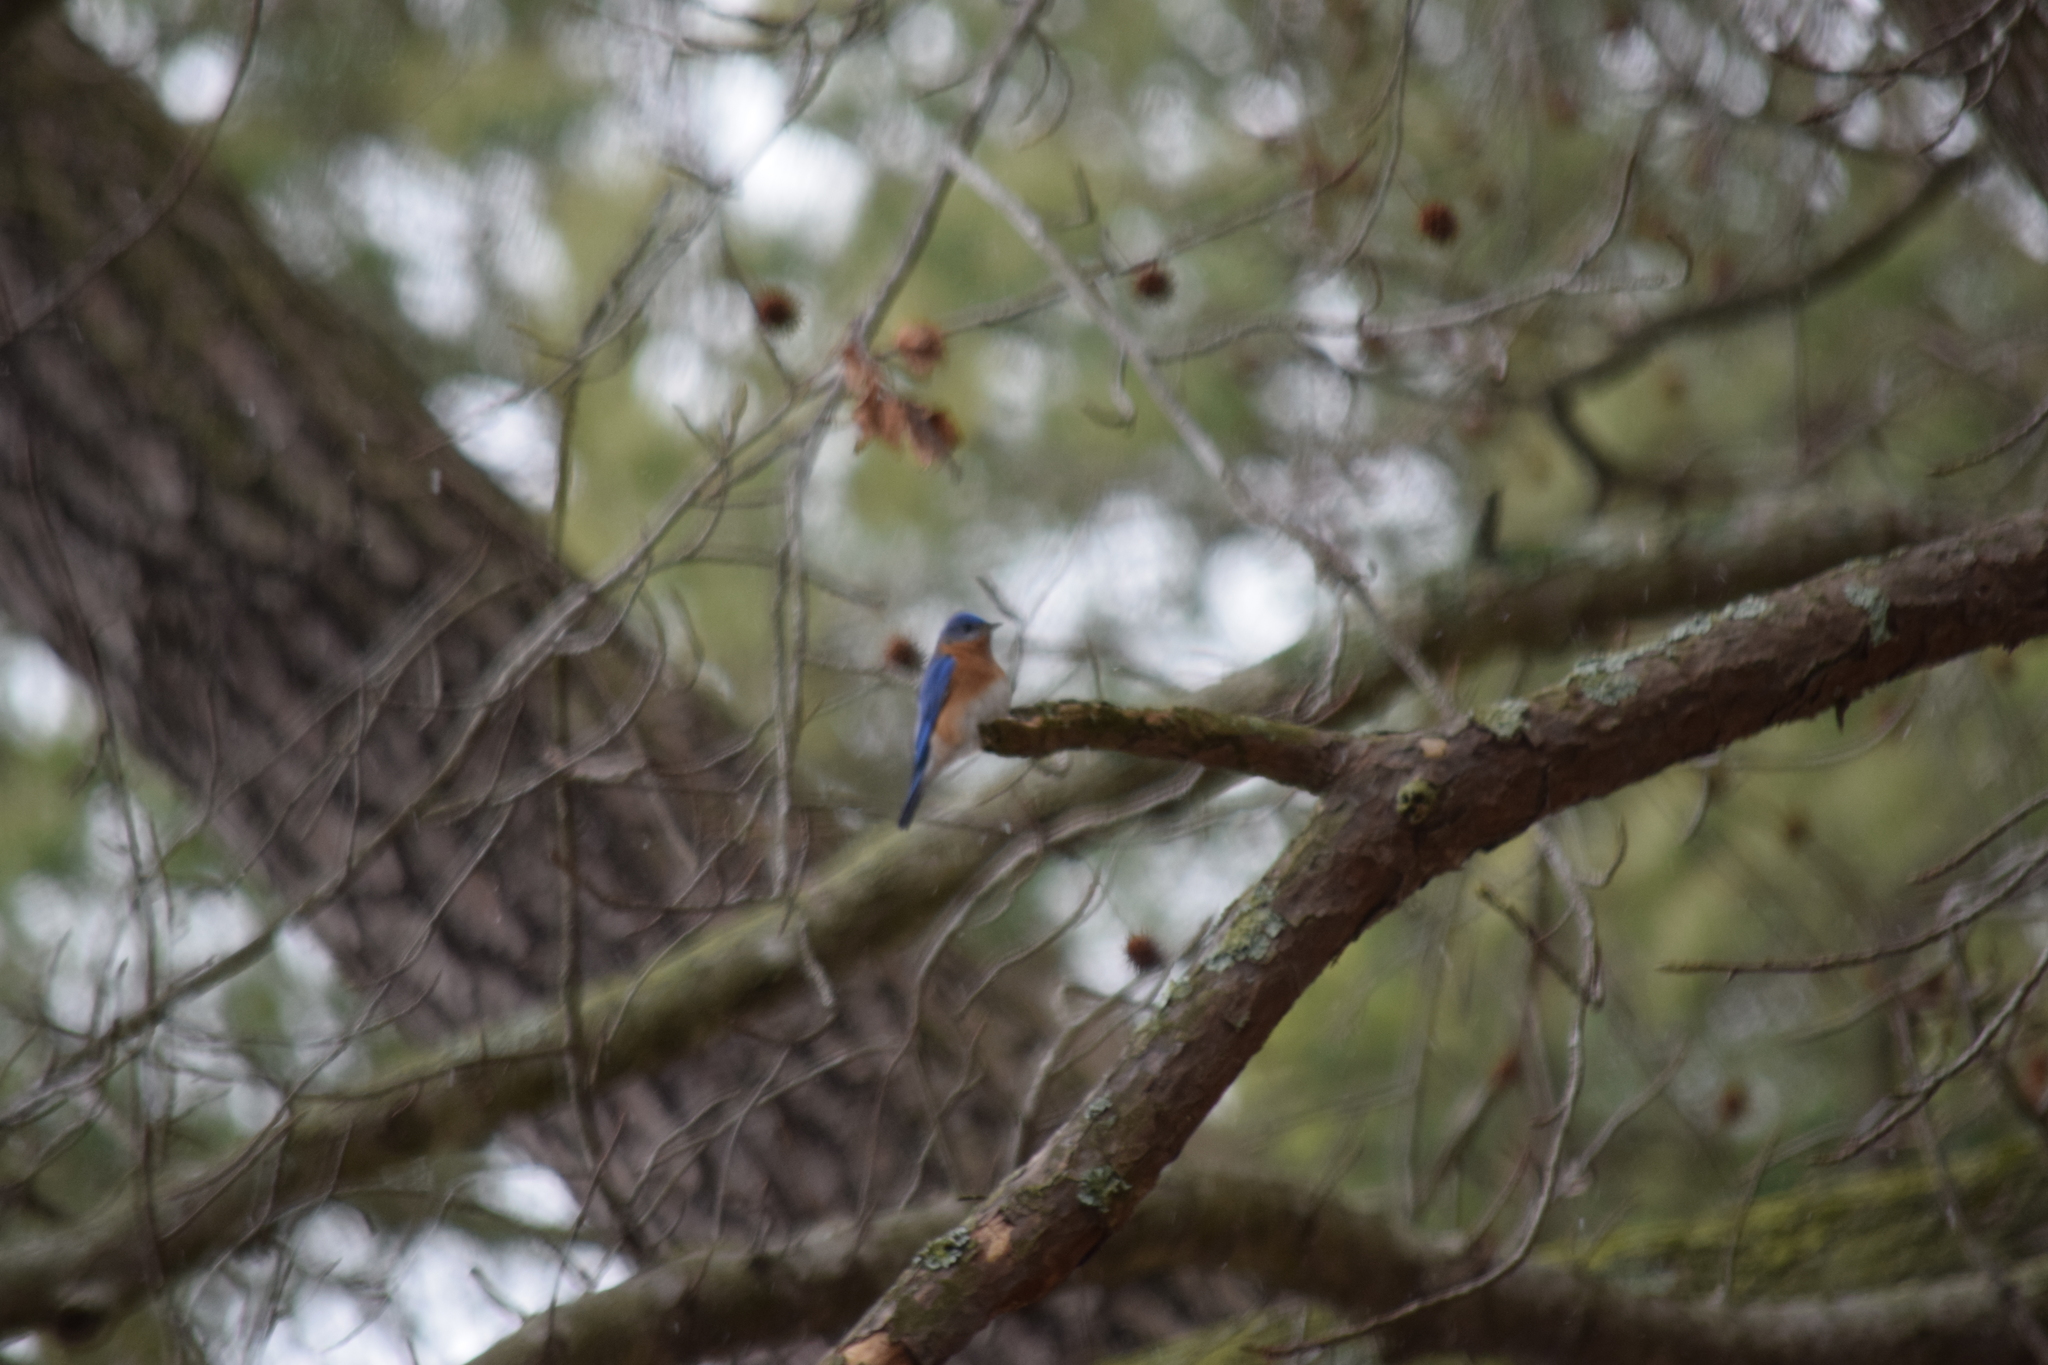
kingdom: Animalia
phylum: Chordata
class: Aves
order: Passeriformes
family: Turdidae
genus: Sialia
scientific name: Sialia sialis
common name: Eastern bluebird
